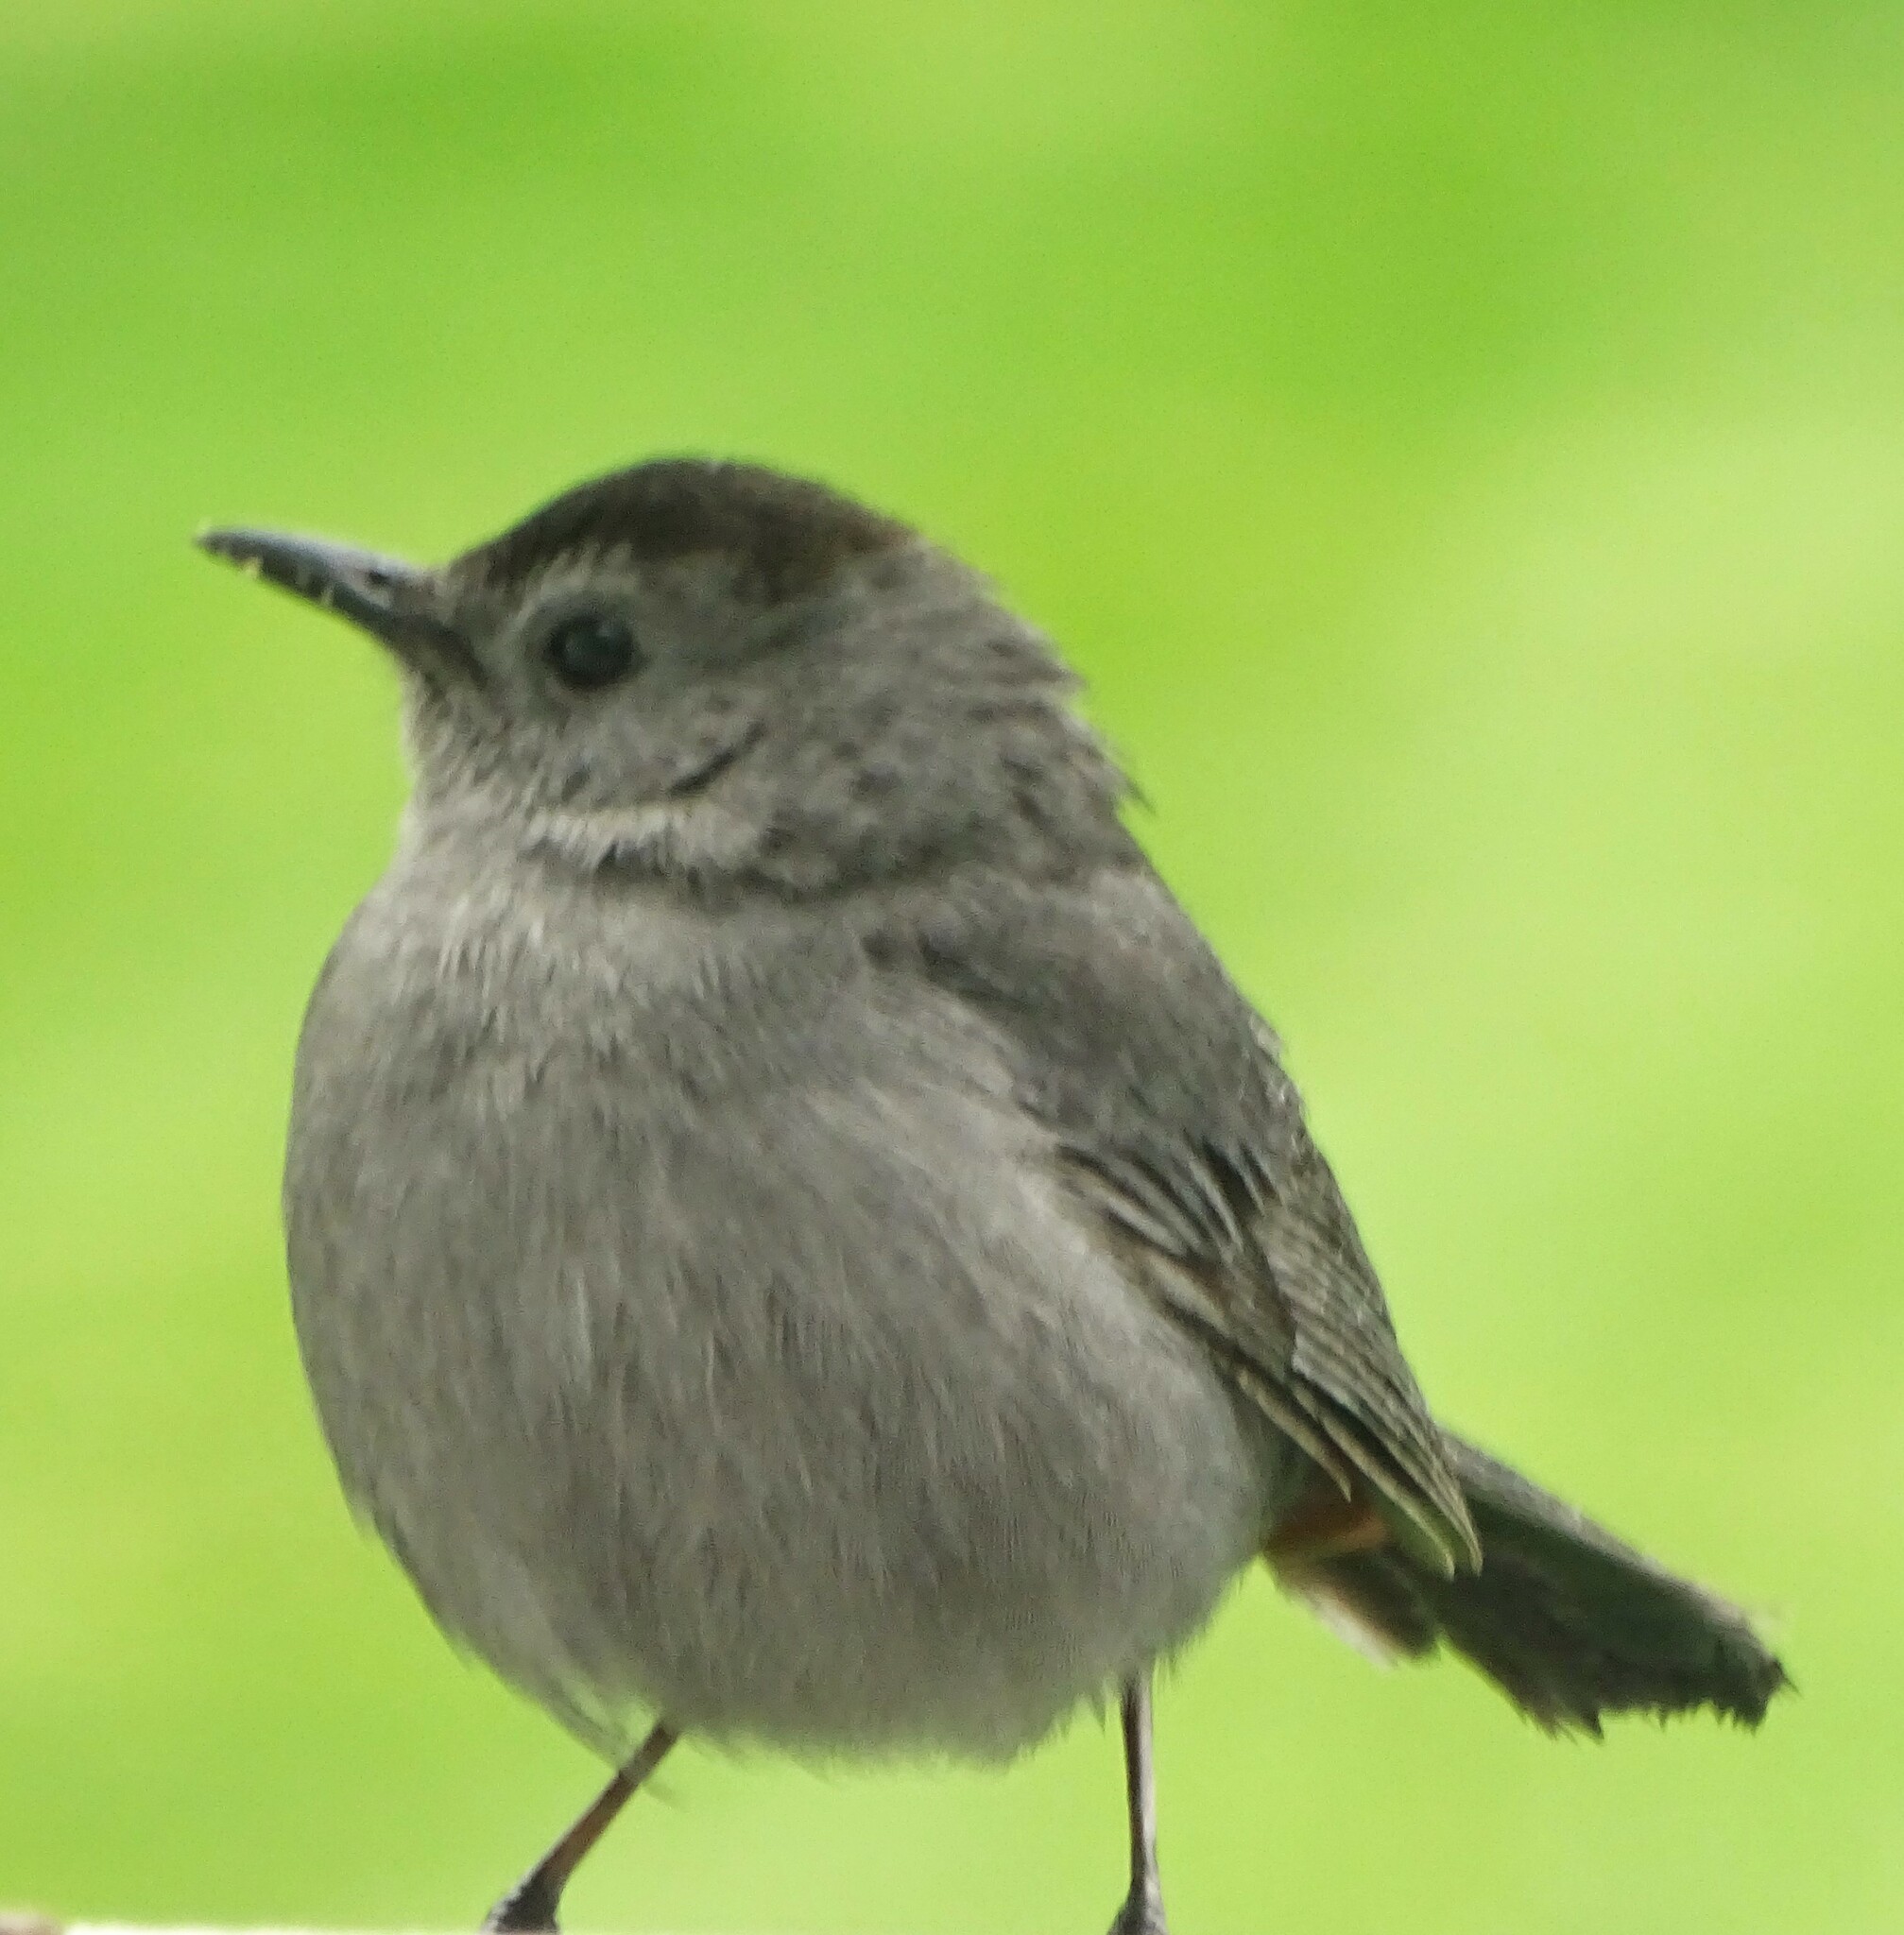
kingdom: Animalia
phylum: Chordata
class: Aves
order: Passeriformes
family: Mimidae
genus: Dumetella
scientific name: Dumetella carolinensis
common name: Gray catbird
